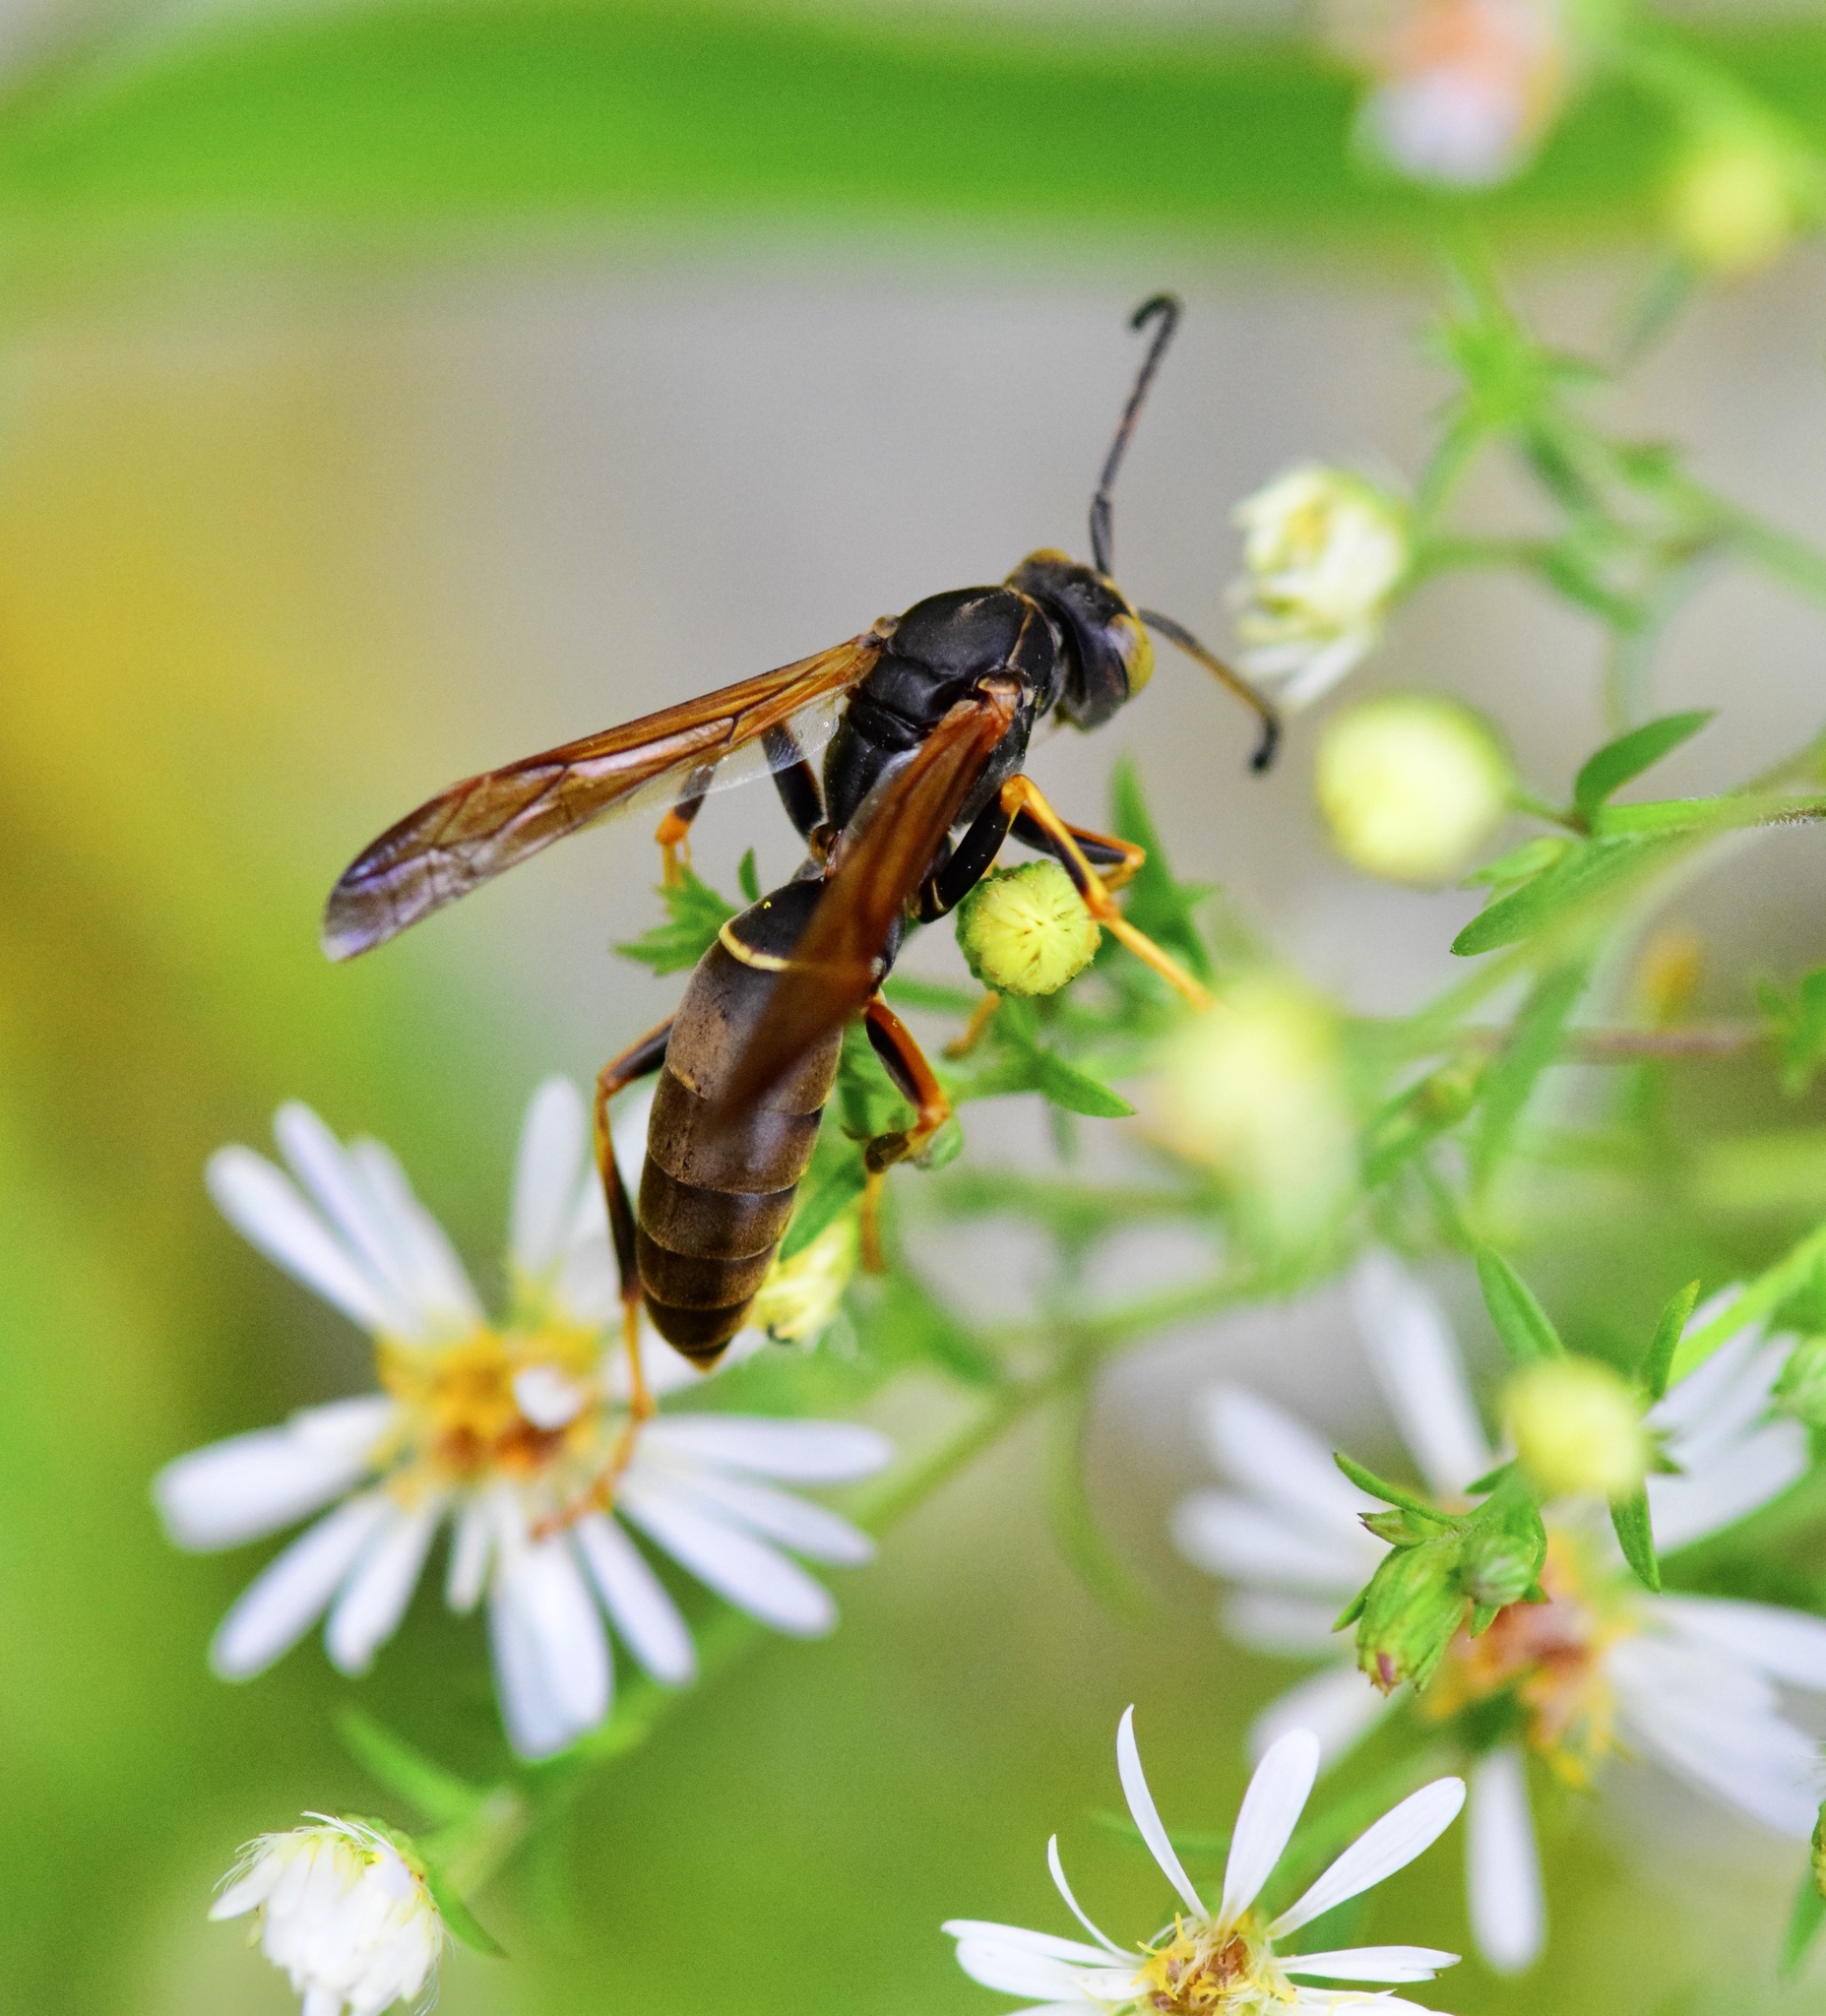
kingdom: Animalia
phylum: Arthropoda
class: Insecta
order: Hymenoptera
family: Eumenidae
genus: Polistes
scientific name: Polistes fuscatus
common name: Dark paper wasp
